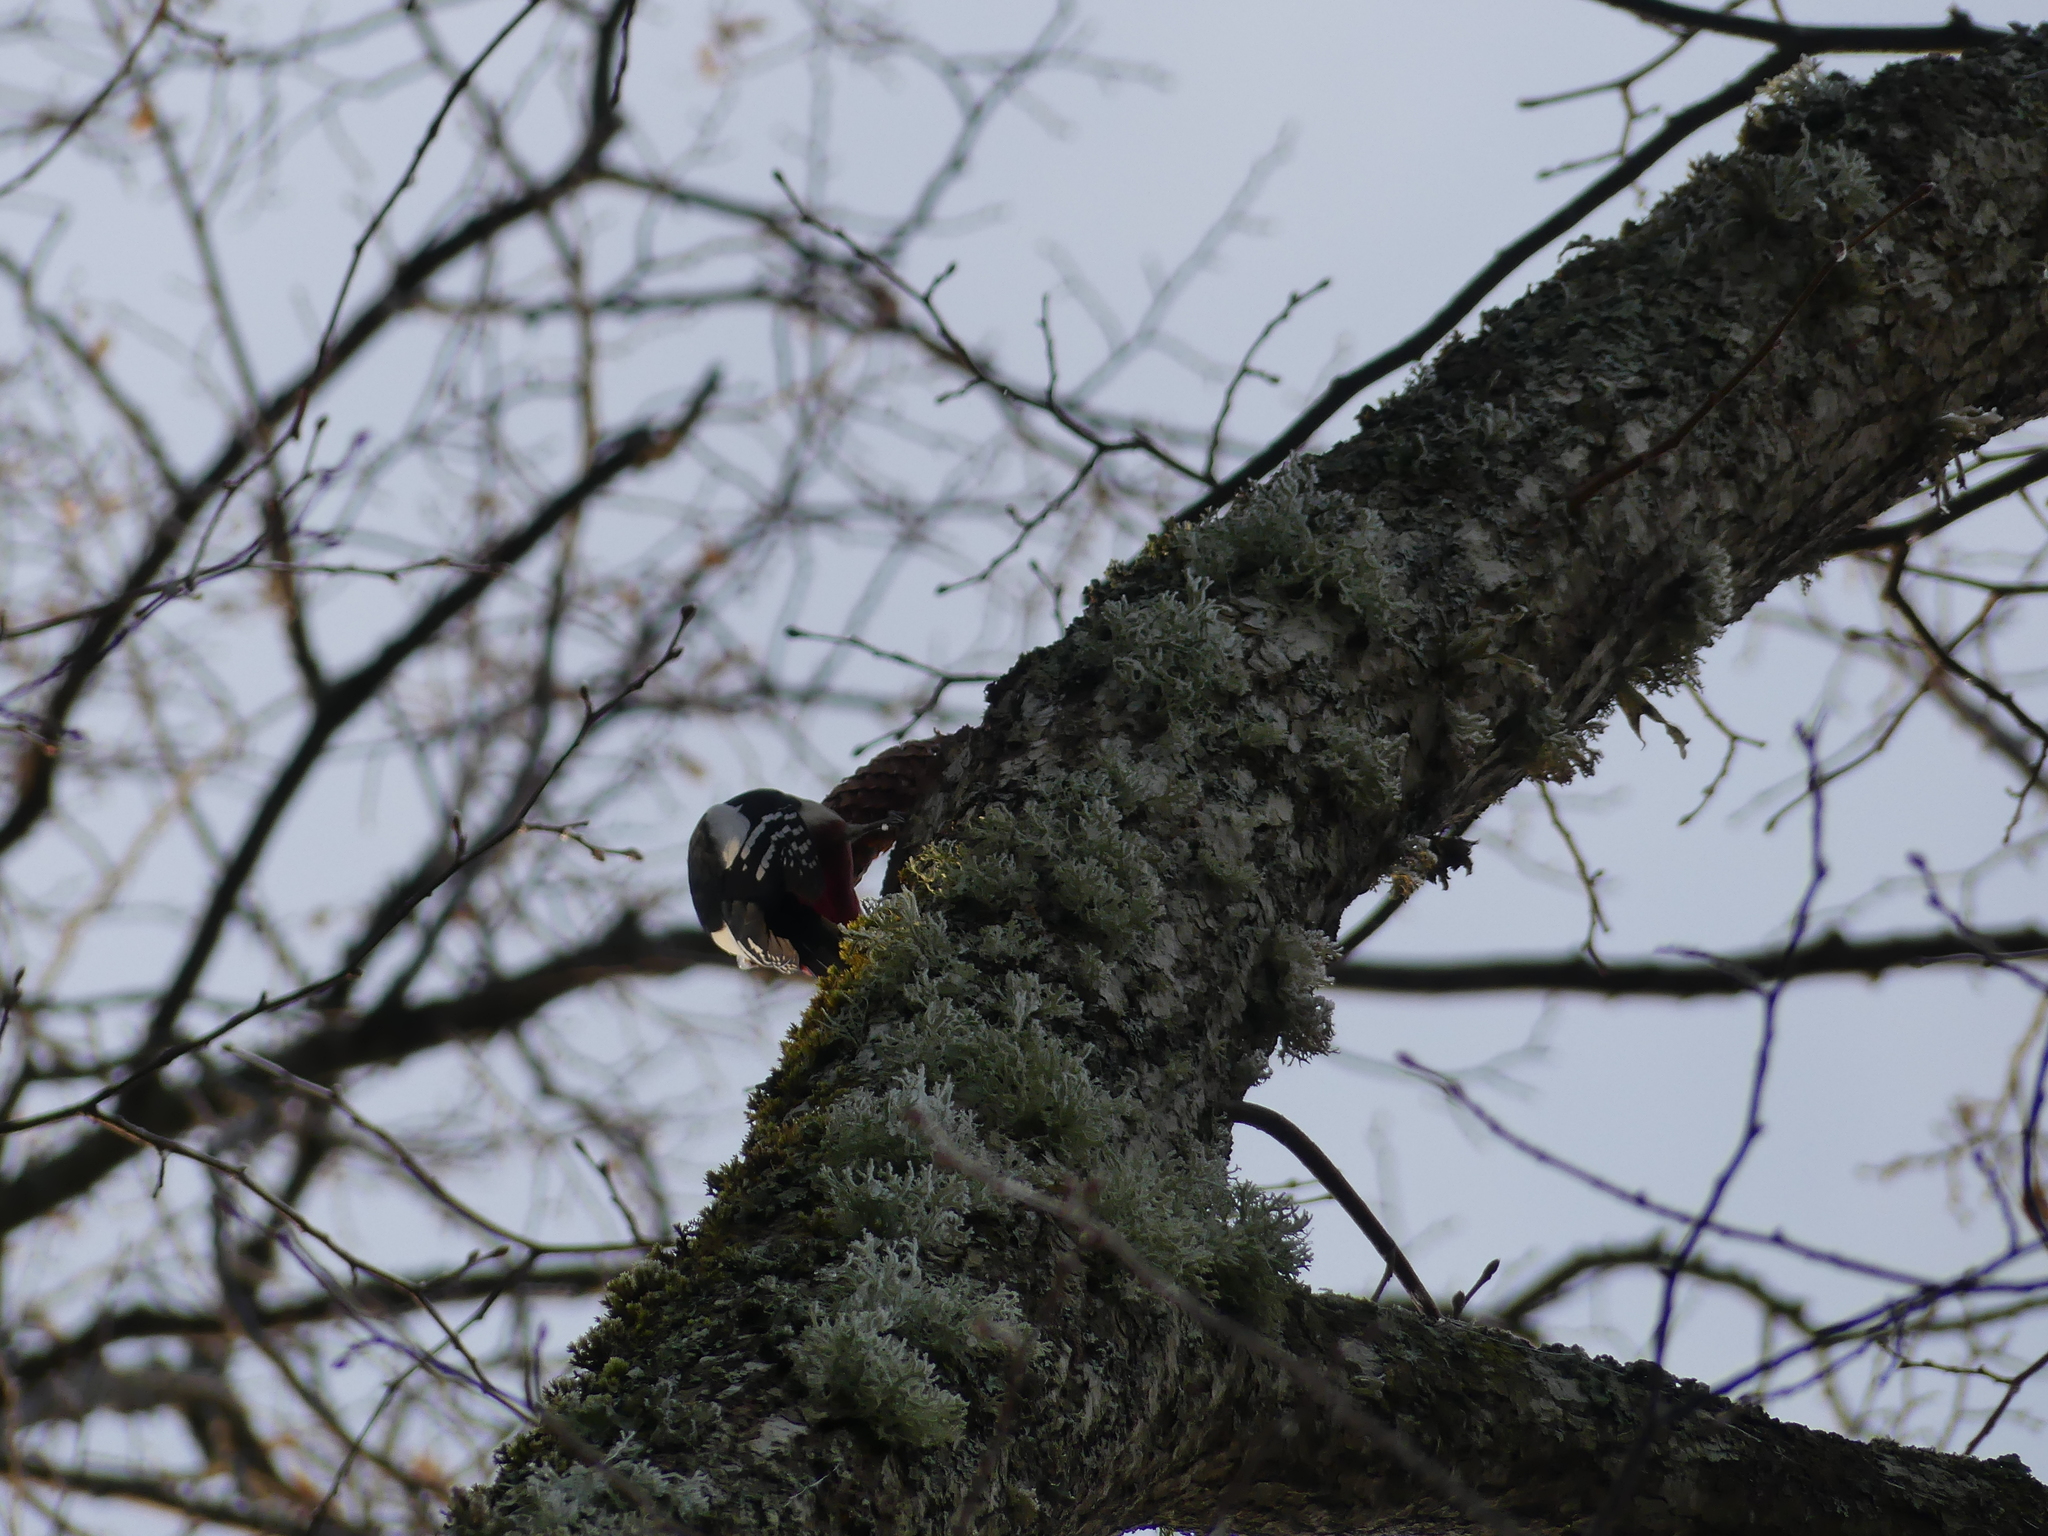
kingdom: Animalia
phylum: Chordata
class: Aves
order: Piciformes
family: Picidae
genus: Dendrocopos
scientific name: Dendrocopos major
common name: Great spotted woodpecker
